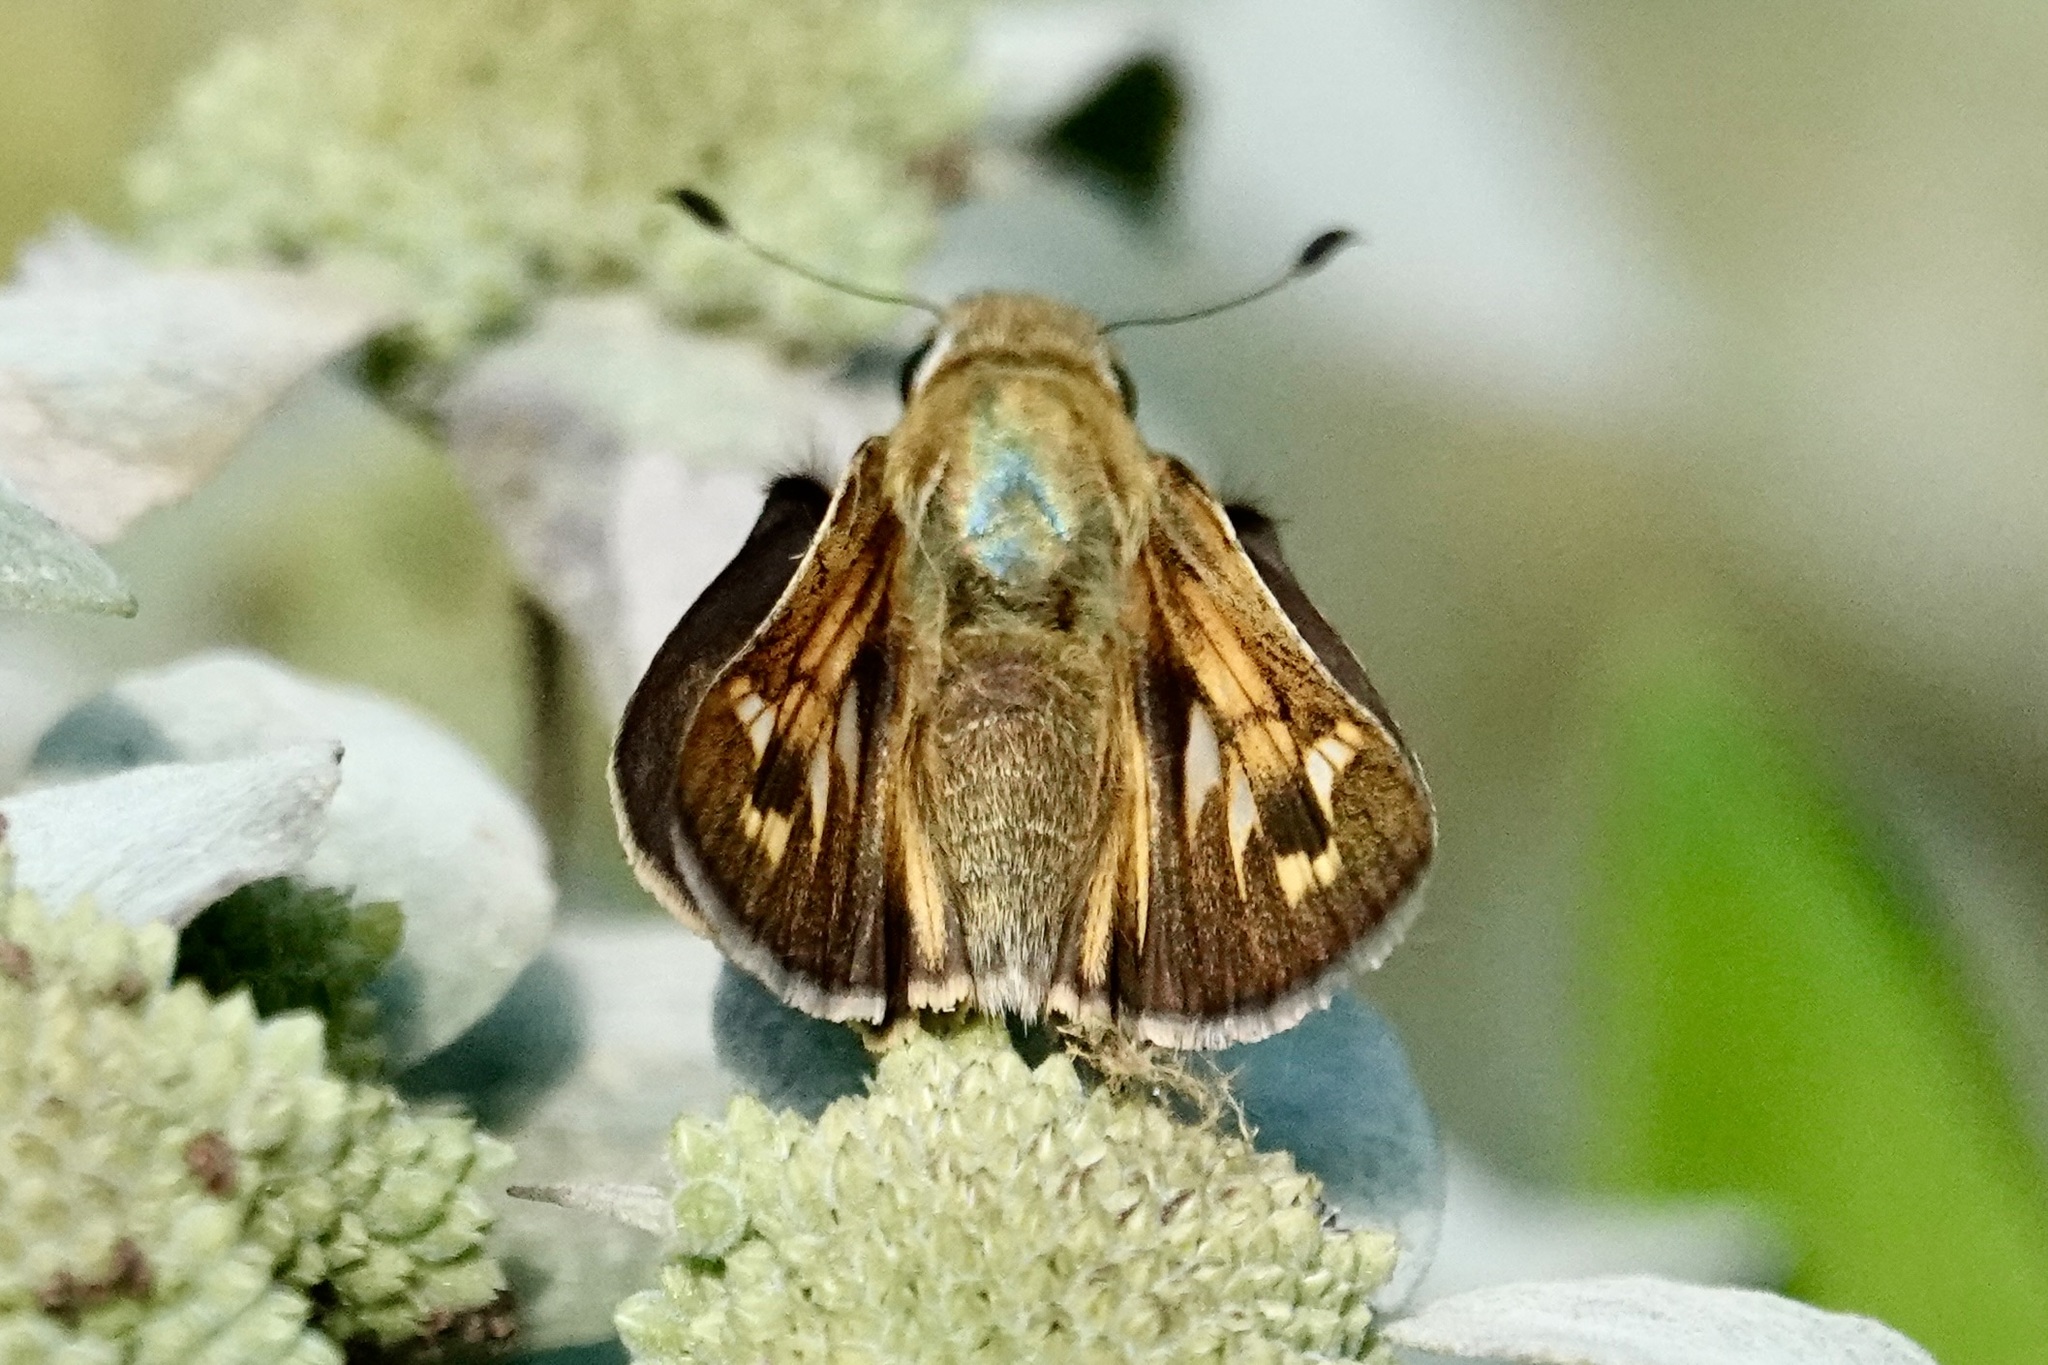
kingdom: Animalia
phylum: Arthropoda
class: Insecta
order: Lepidoptera
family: Hesperiidae
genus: Atalopedes
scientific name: Atalopedes
